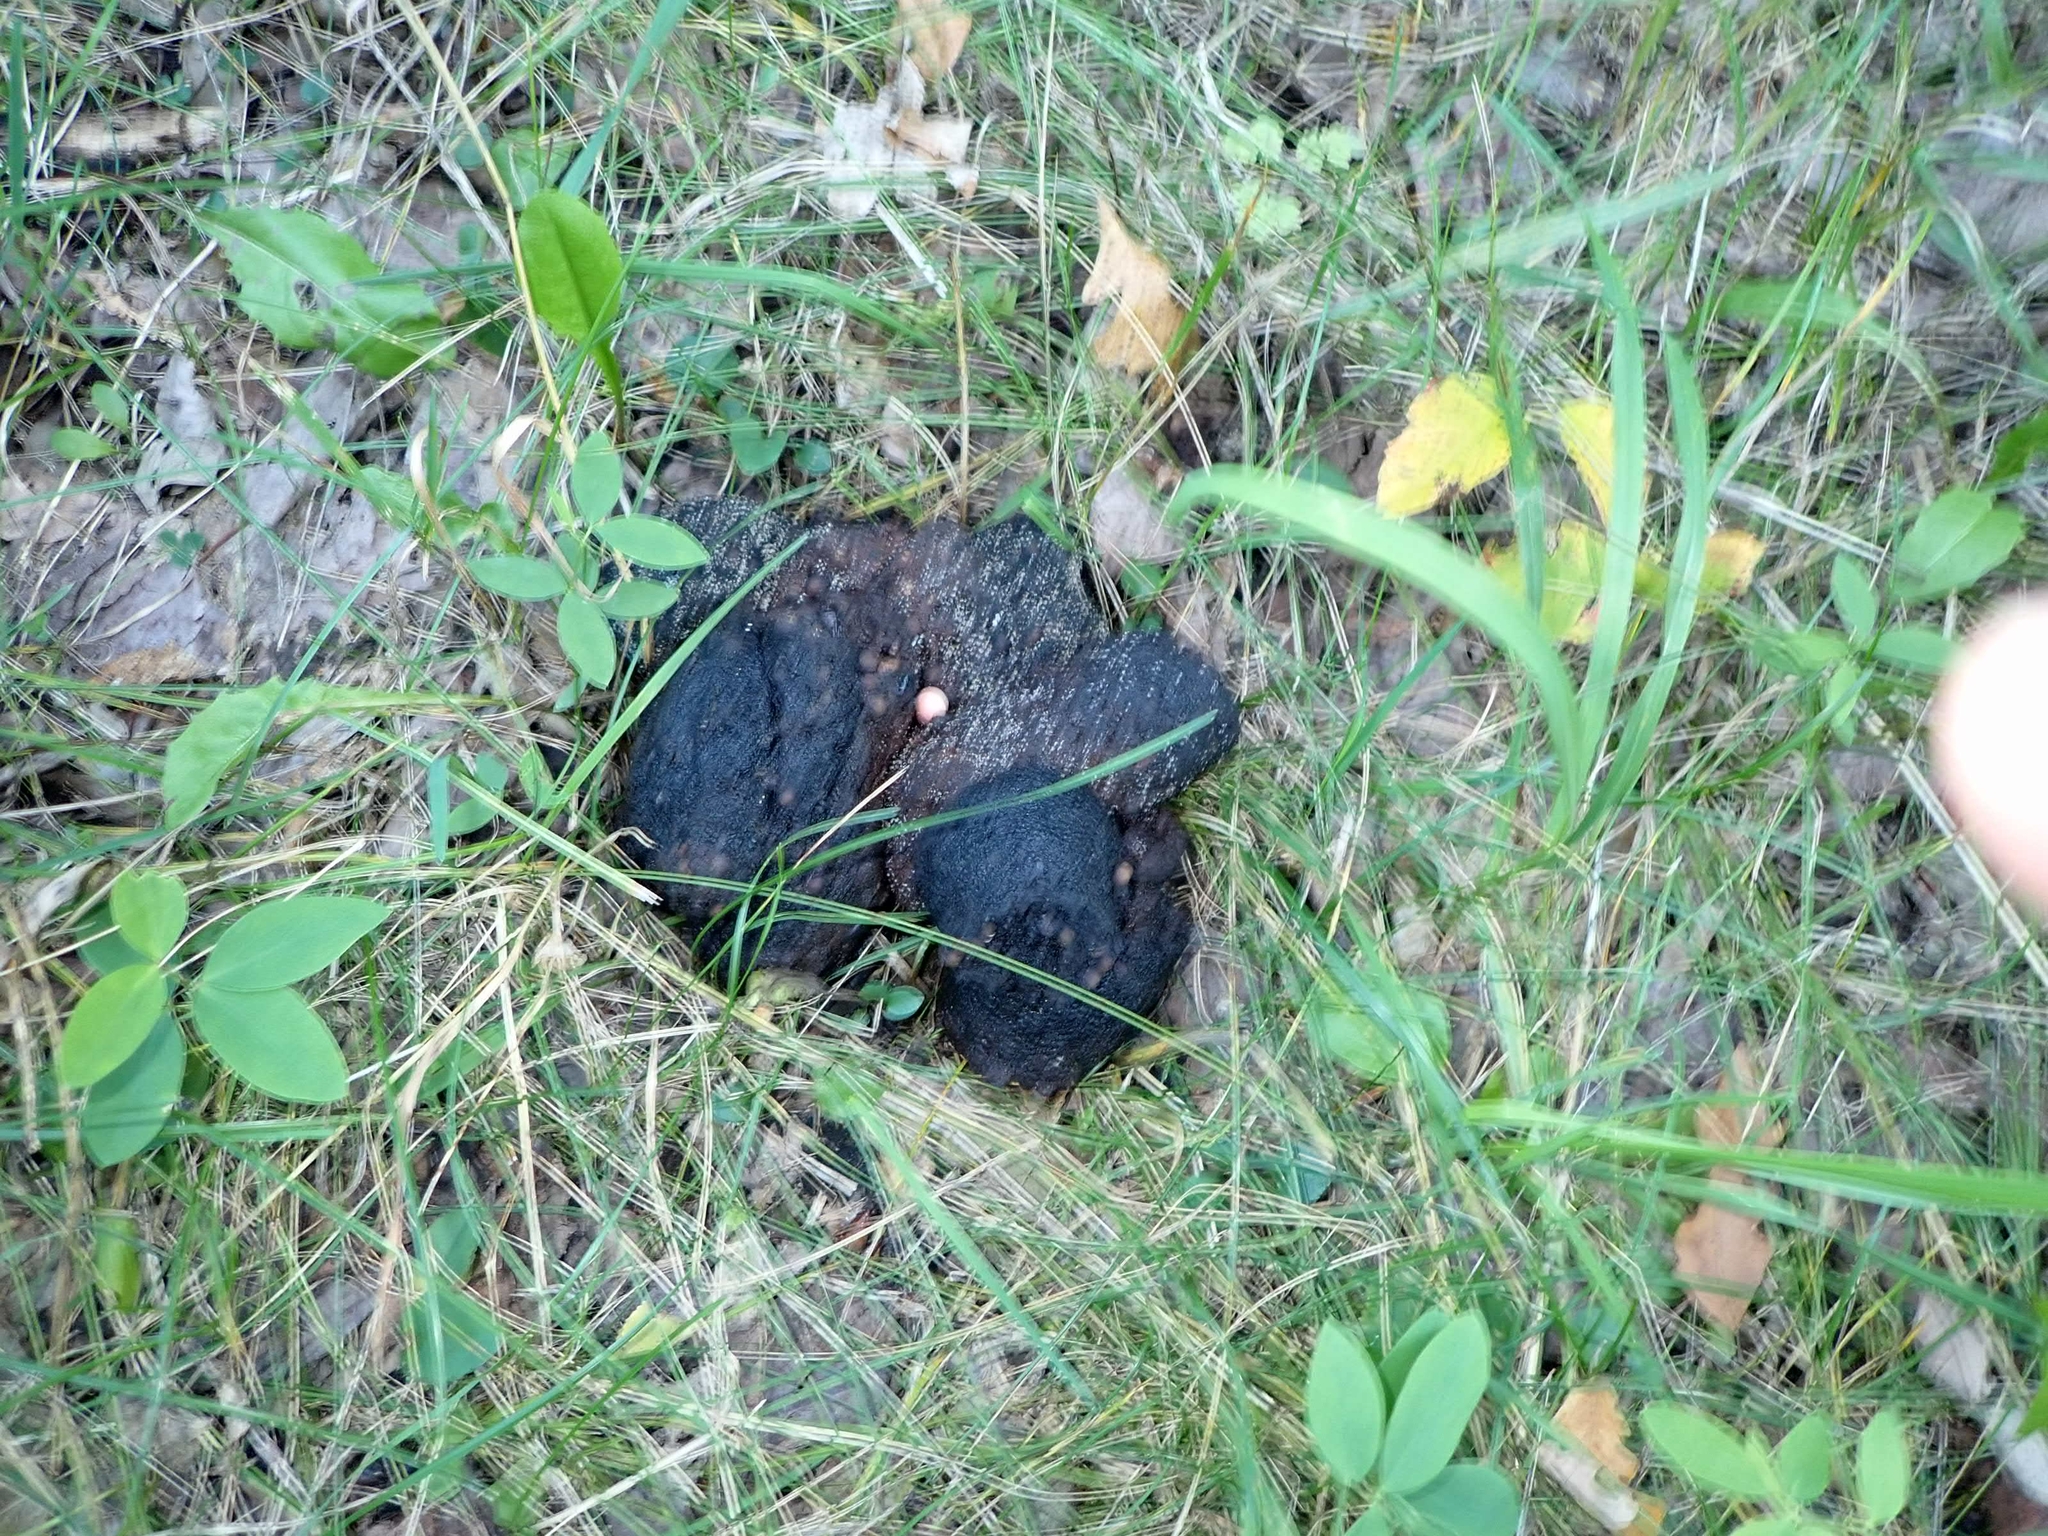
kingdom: Animalia
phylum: Chordata
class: Mammalia
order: Carnivora
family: Ursidae
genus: Ursus
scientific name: Ursus americanus
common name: American black bear
